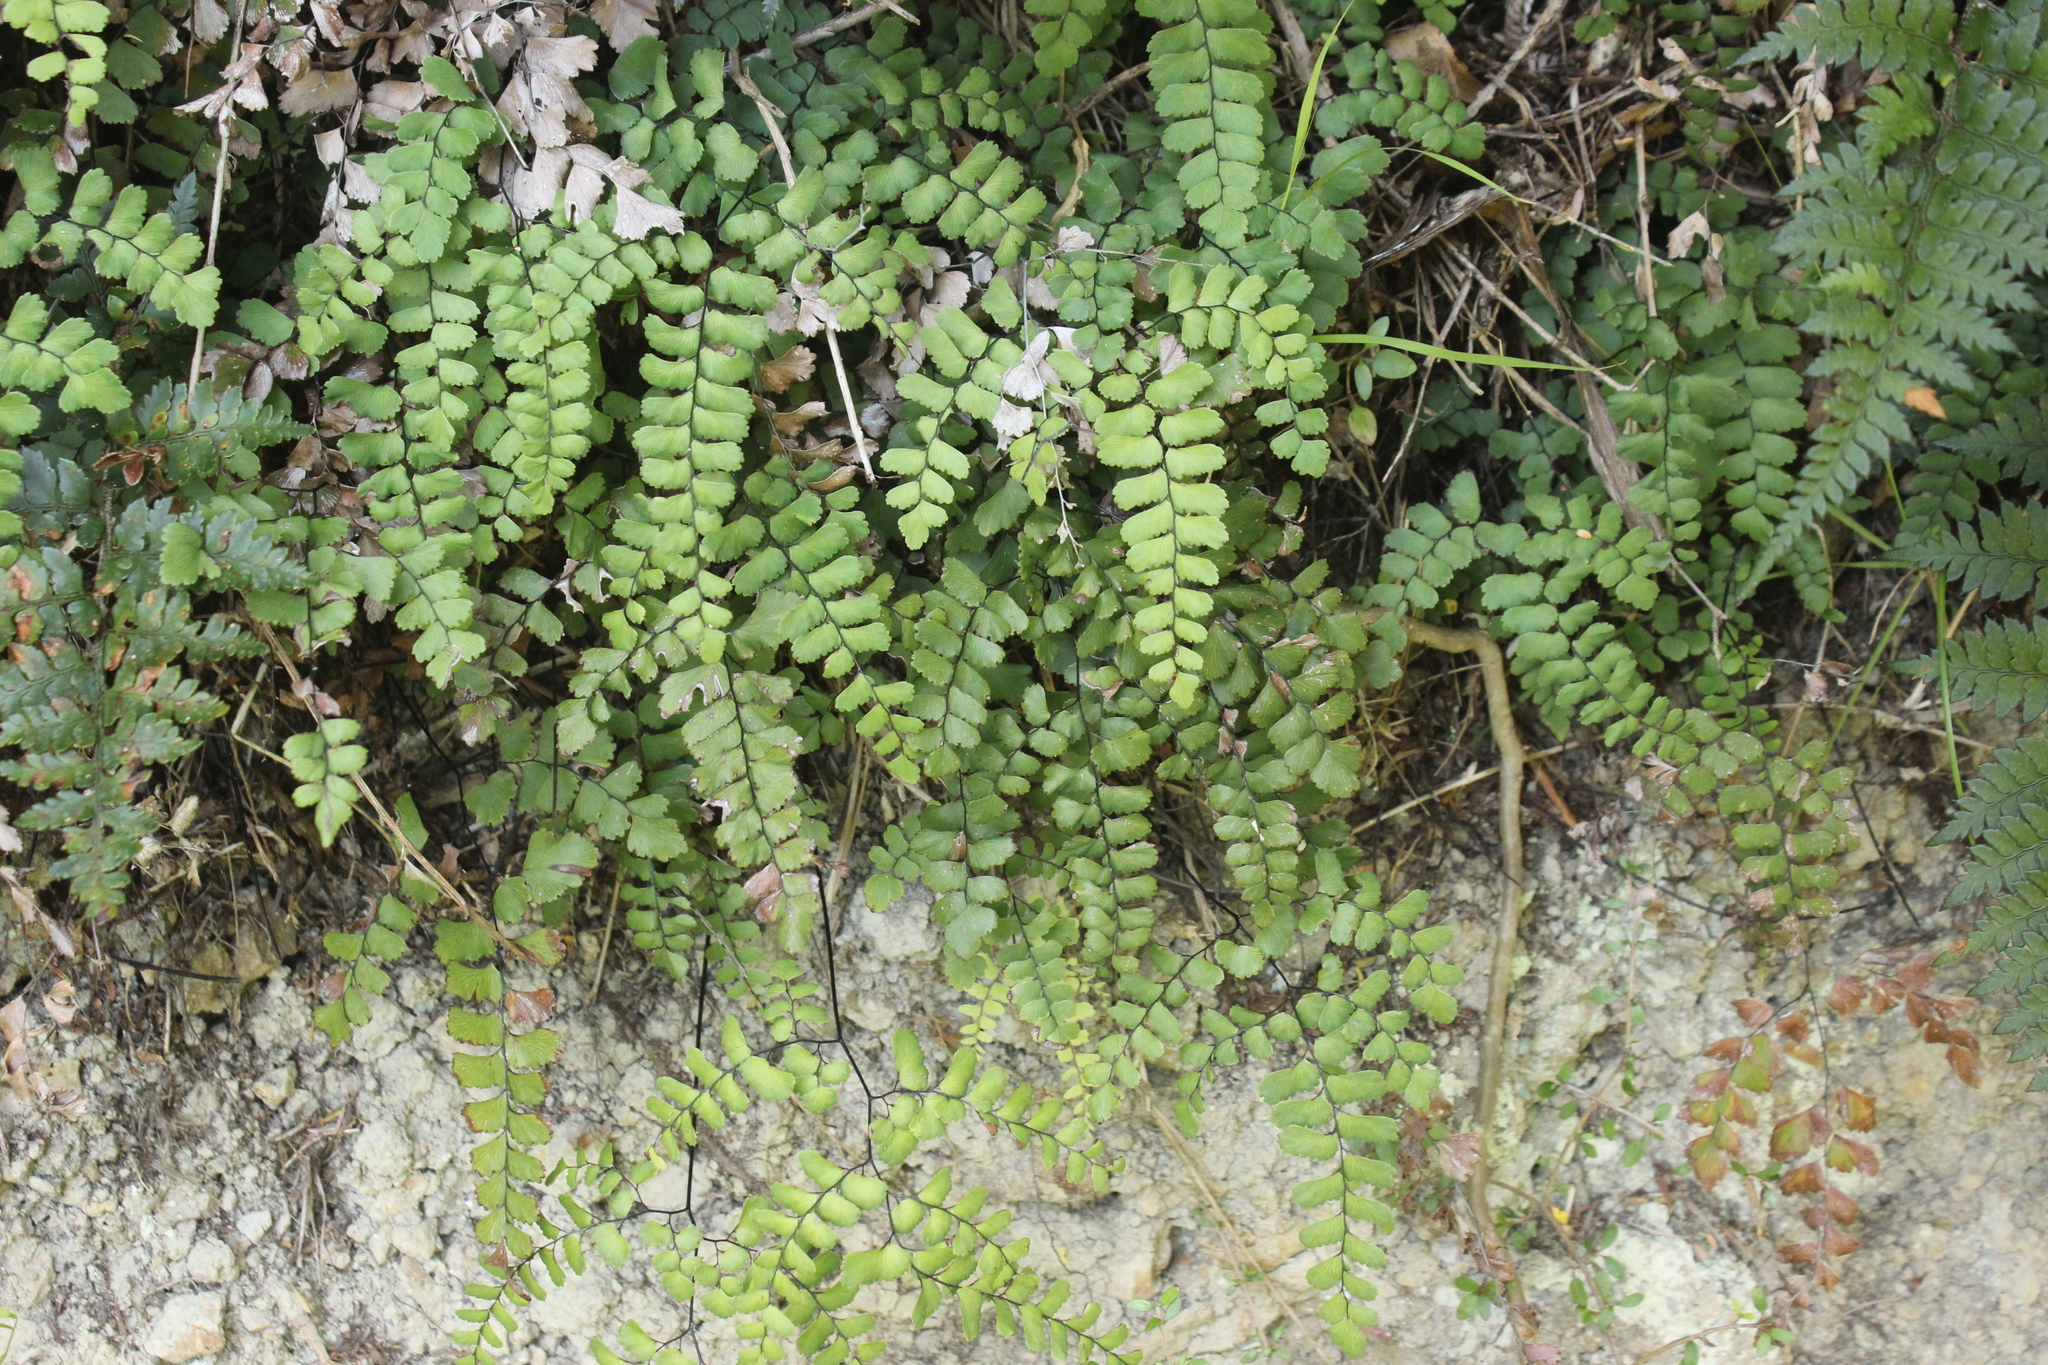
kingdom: Plantae
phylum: Tracheophyta
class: Polypodiopsida
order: Polypodiales
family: Pteridaceae
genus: Adiantum
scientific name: Adiantum cunninghamii
